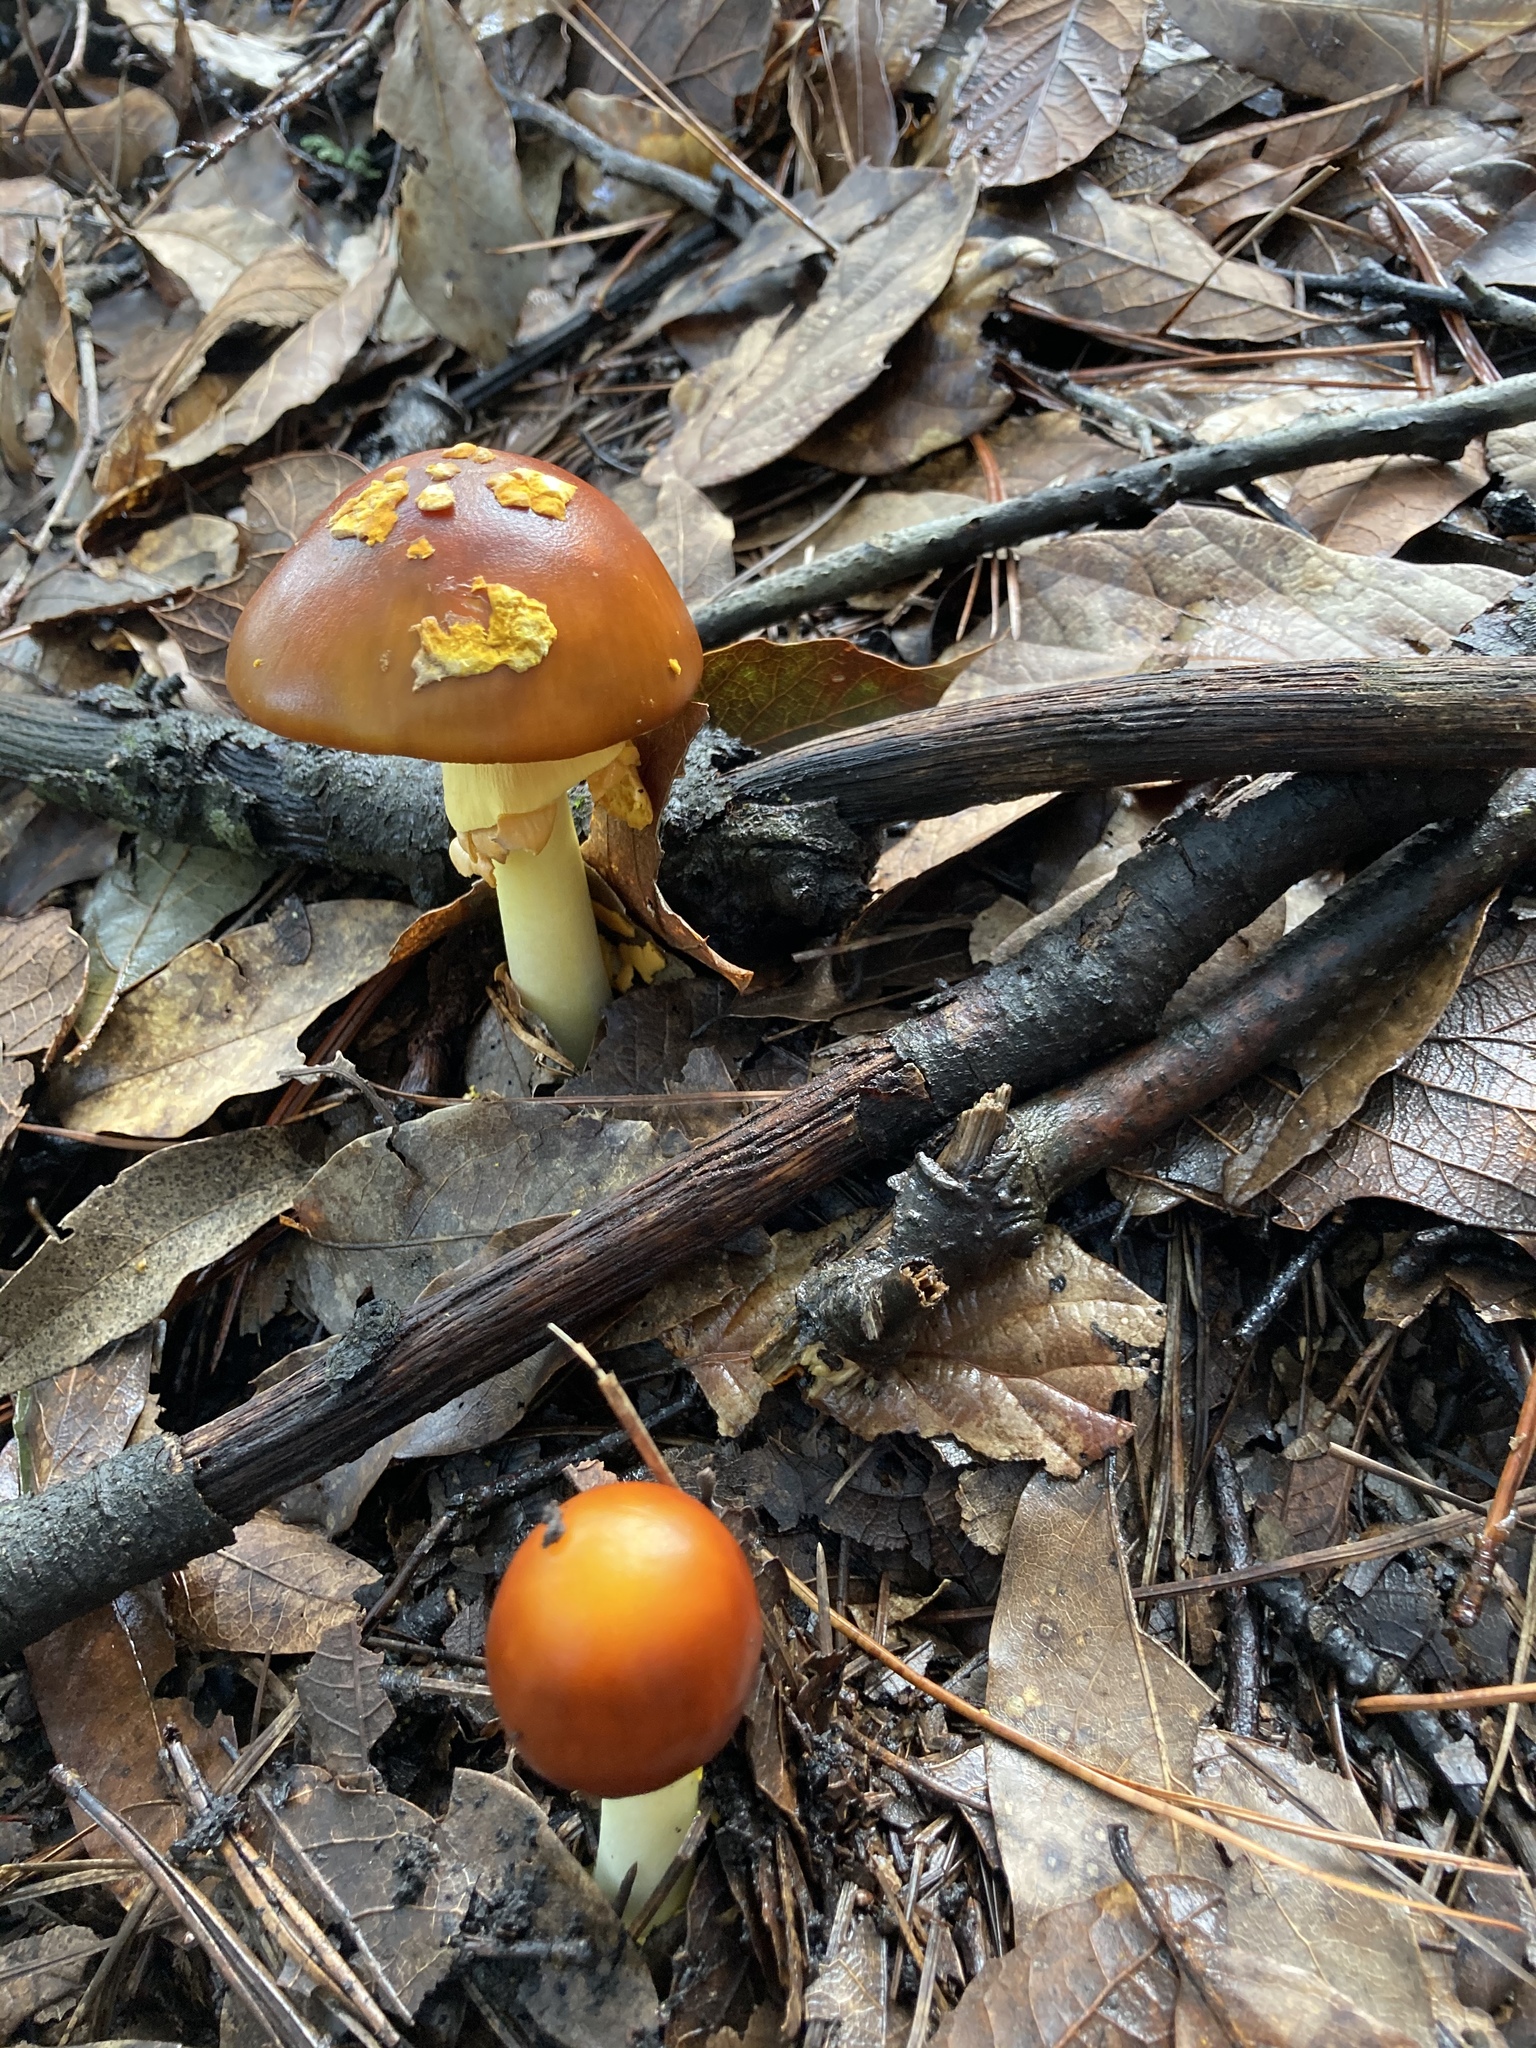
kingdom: Fungi
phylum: Basidiomycota
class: Agaricomycetes
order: Agaricales
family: Amanitaceae
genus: Amanita
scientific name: Amanita flavoconia
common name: Yellow patches
